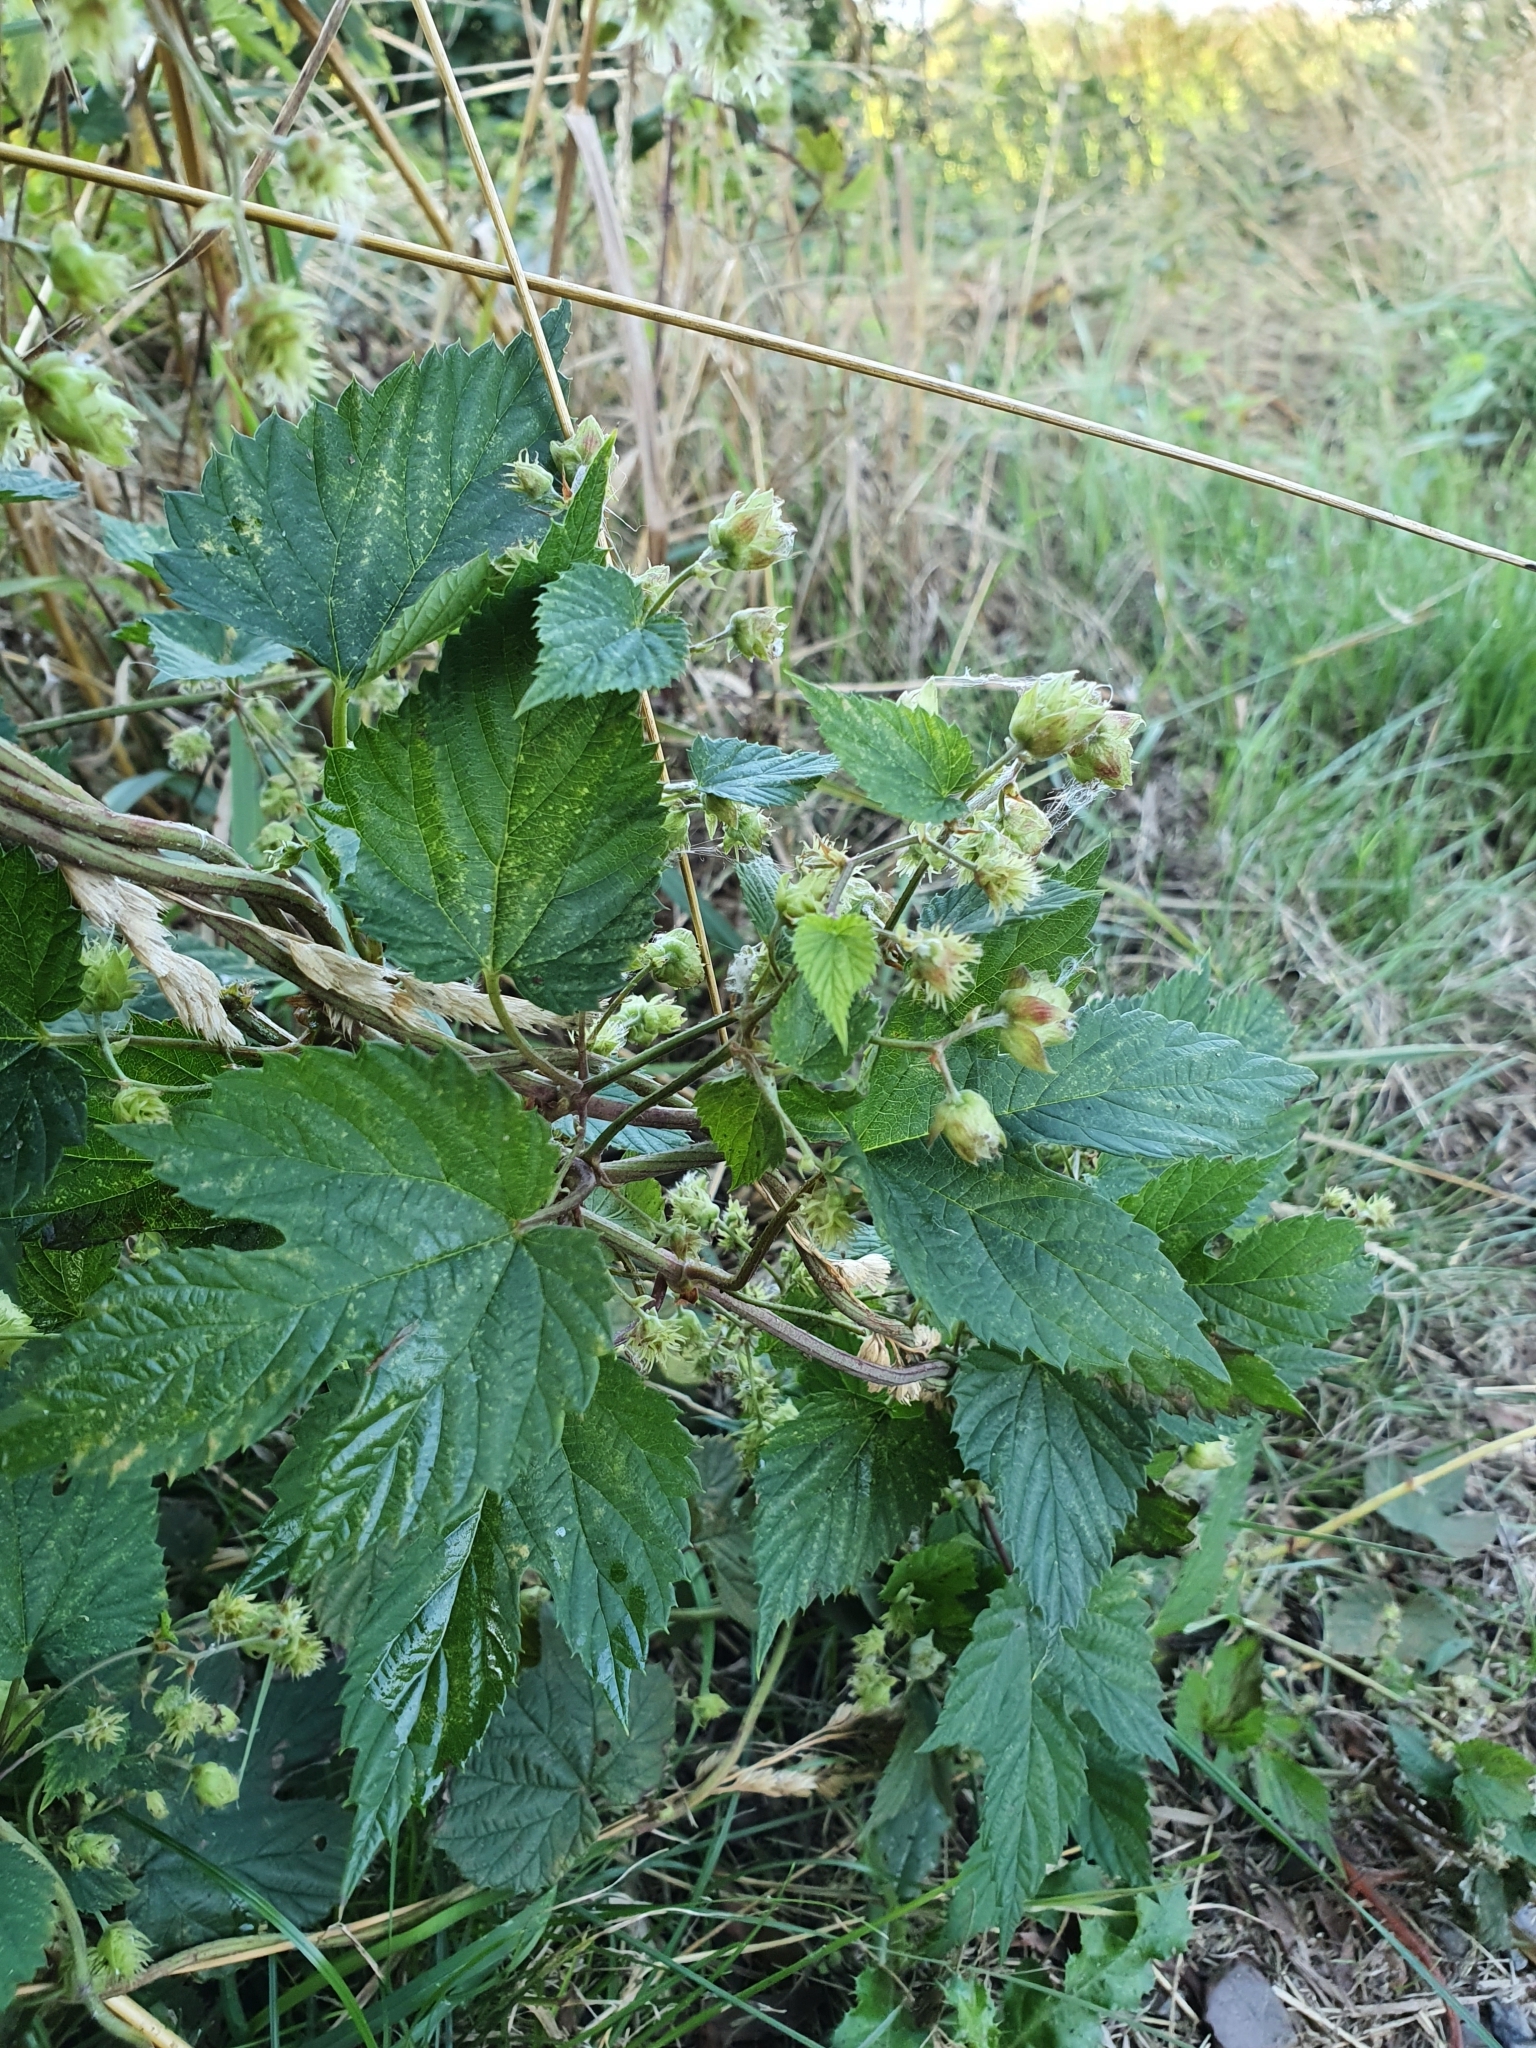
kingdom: Plantae
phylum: Tracheophyta
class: Magnoliopsida
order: Rosales
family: Cannabaceae
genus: Humulus
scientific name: Humulus lupulus
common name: Hop
